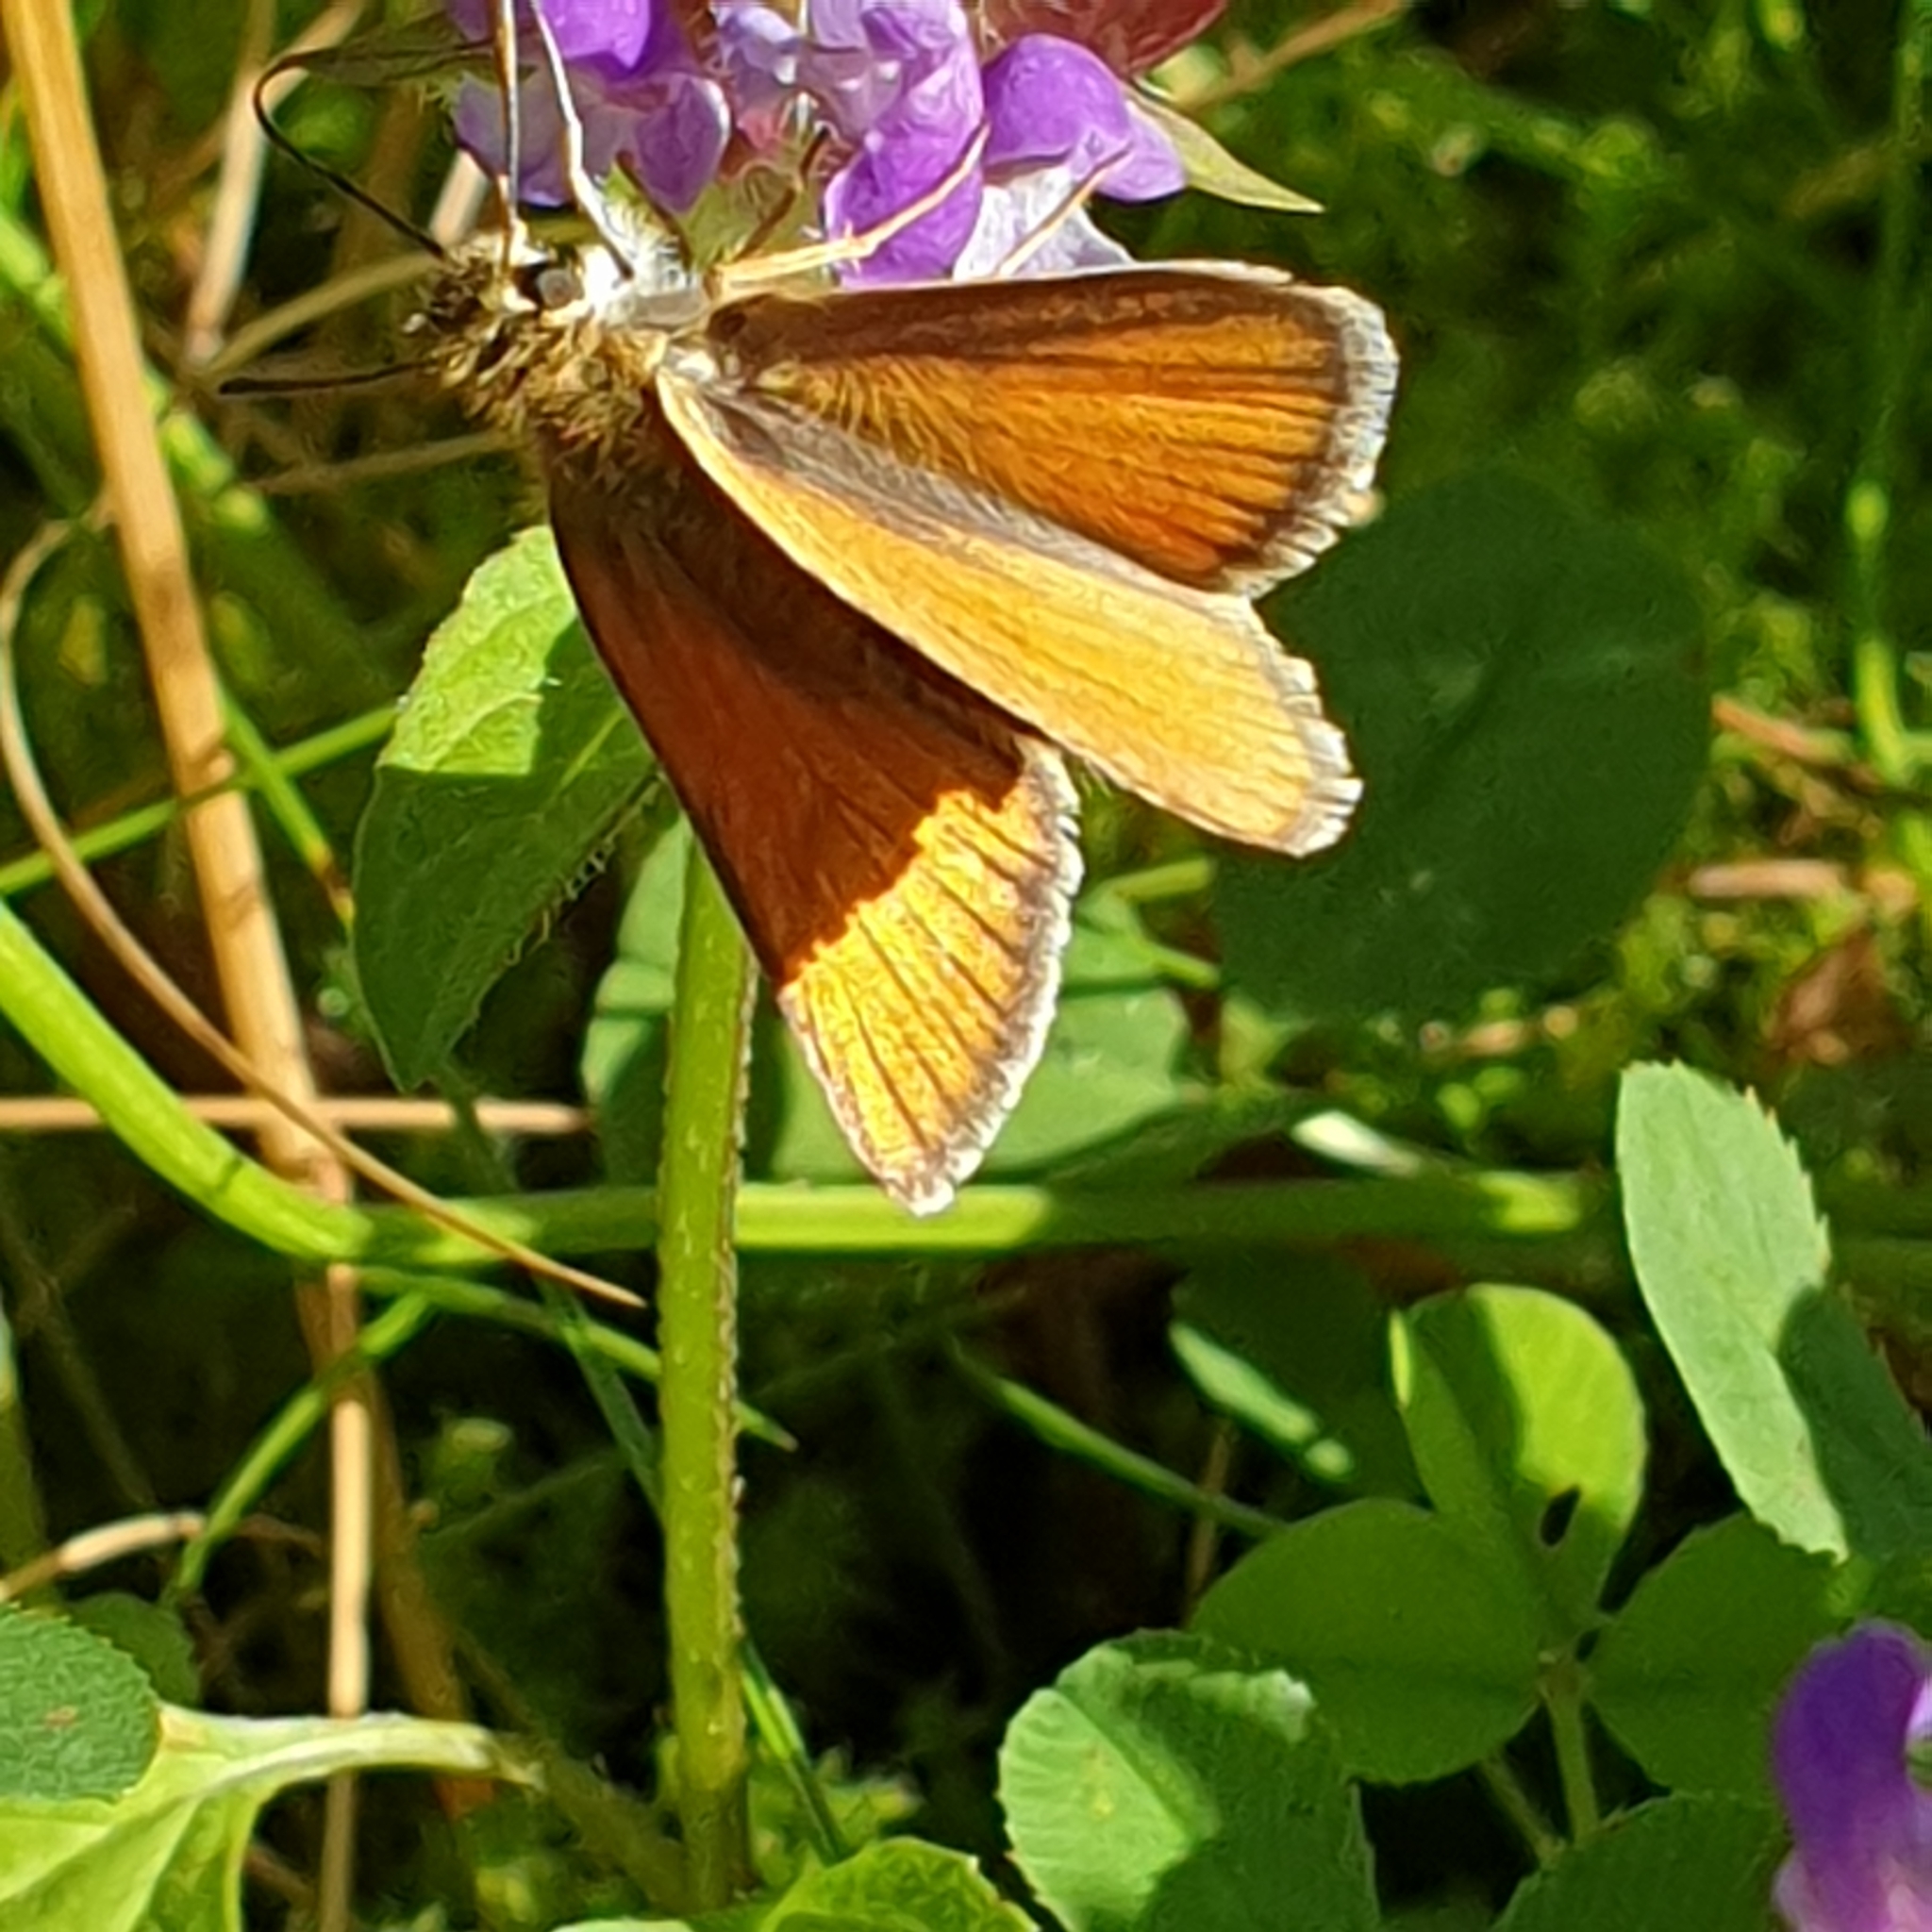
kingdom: Animalia
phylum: Arthropoda
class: Insecta
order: Lepidoptera
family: Hesperiidae
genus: Thymelicus
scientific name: Thymelicus lineola
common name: Essex skipper
